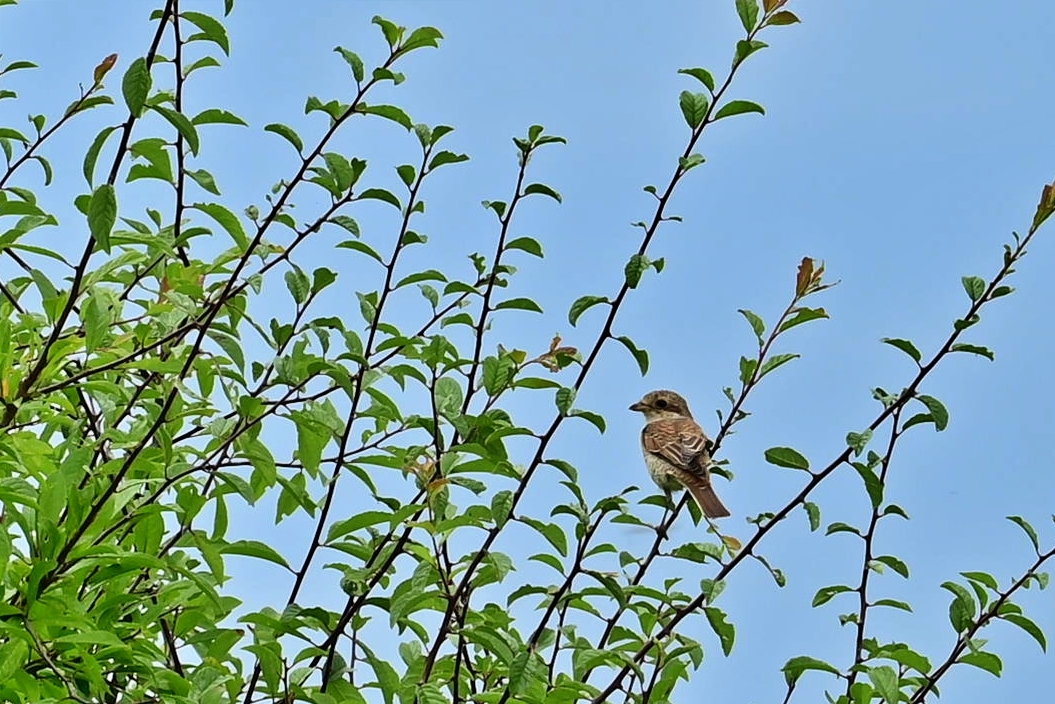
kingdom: Animalia
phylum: Chordata
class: Aves
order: Passeriformes
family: Laniidae
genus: Lanius
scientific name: Lanius collurio
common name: Red-backed shrike
